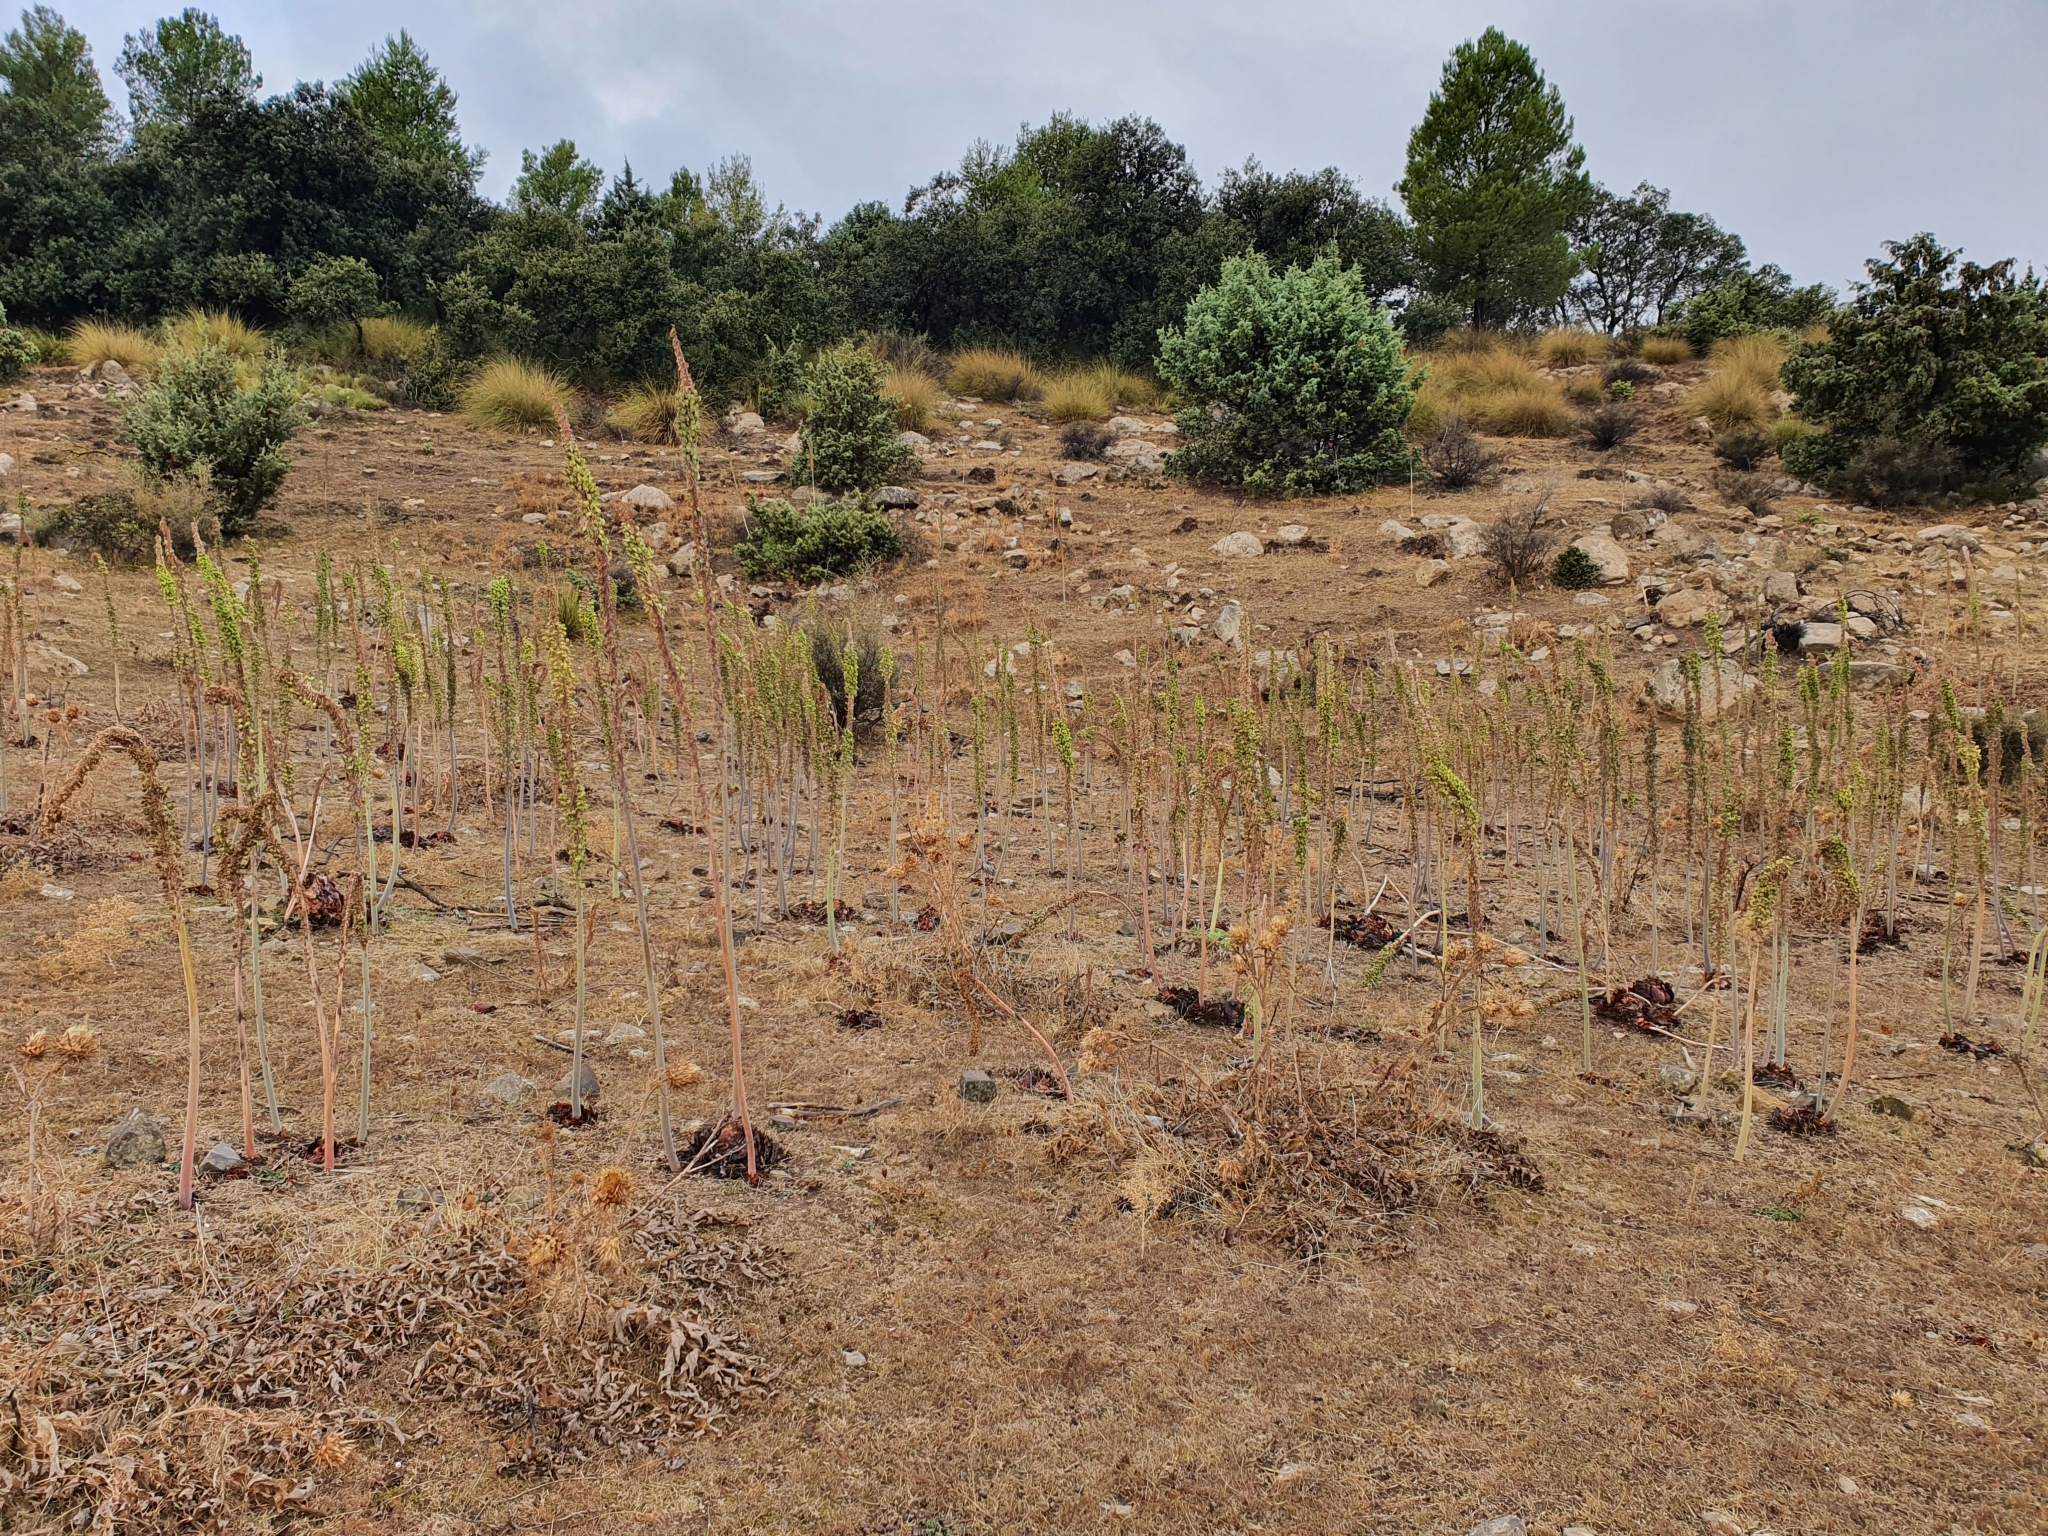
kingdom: Plantae
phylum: Tracheophyta
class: Liliopsida
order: Asparagales
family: Asparagaceae
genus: Drimia
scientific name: Drimia numidica
